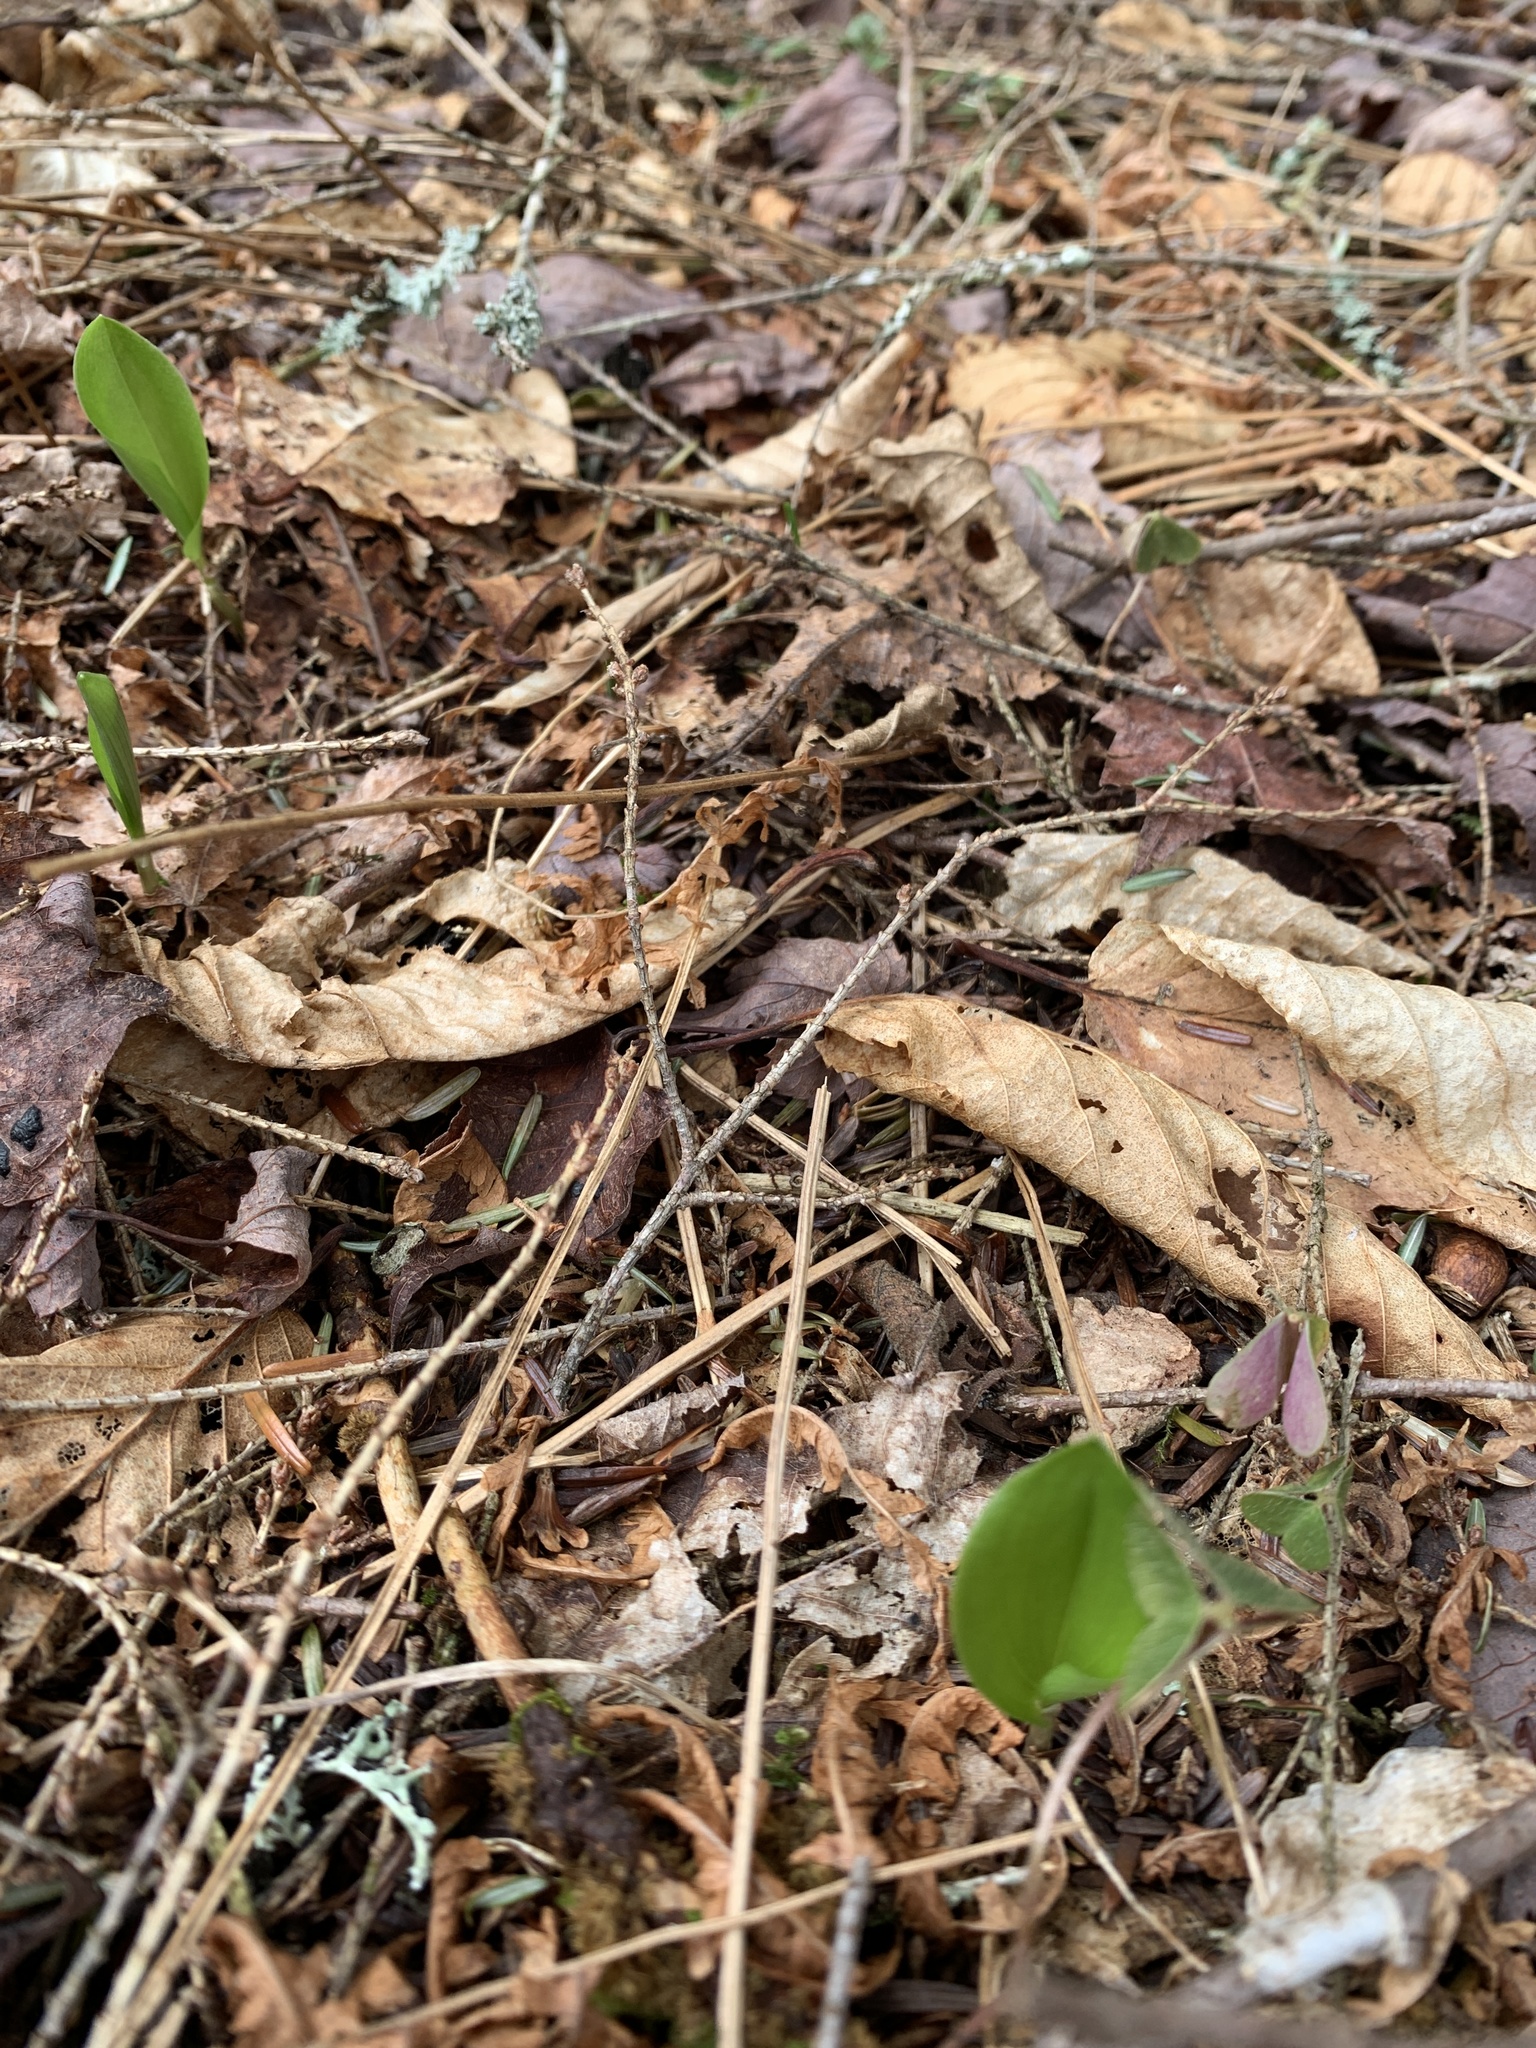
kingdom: Plantae
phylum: Tracheophyta
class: Liliopsida
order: Asparagales
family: Asparagaceae
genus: Maianthemum
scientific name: Maianthemum canadense
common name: False lily-of-the-valley
